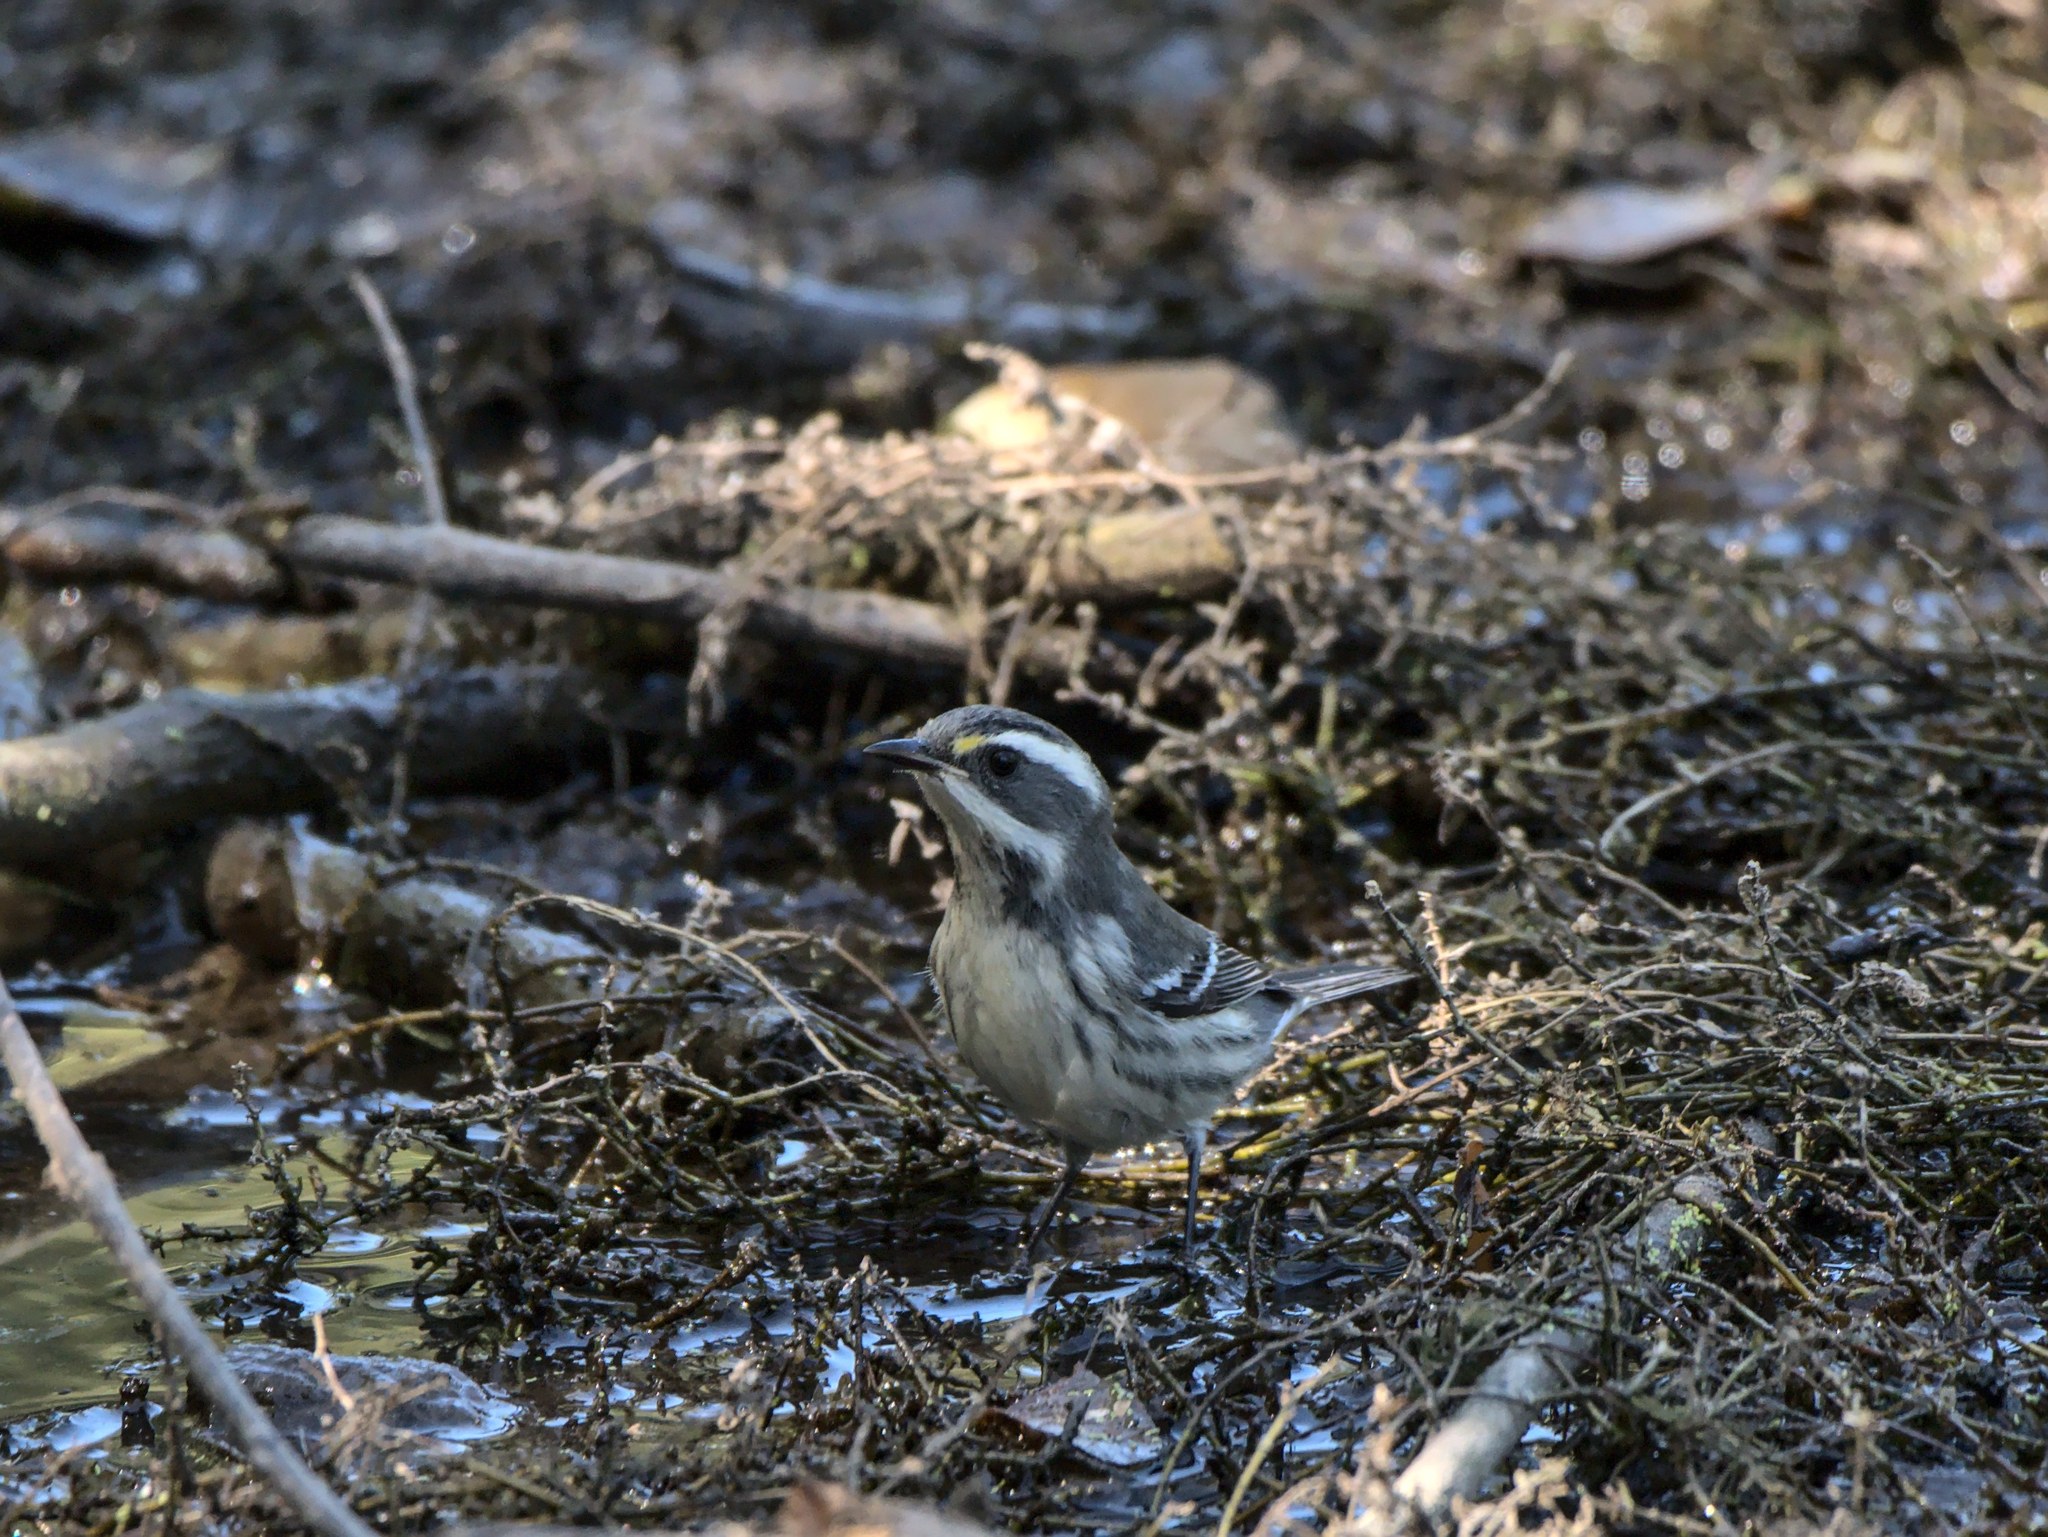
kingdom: Animalia
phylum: Chordata
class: Aves
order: Passeriformes
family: Parulidae
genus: Setophaga
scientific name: Setophaga nigrescens
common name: Black-throated gray warbler
